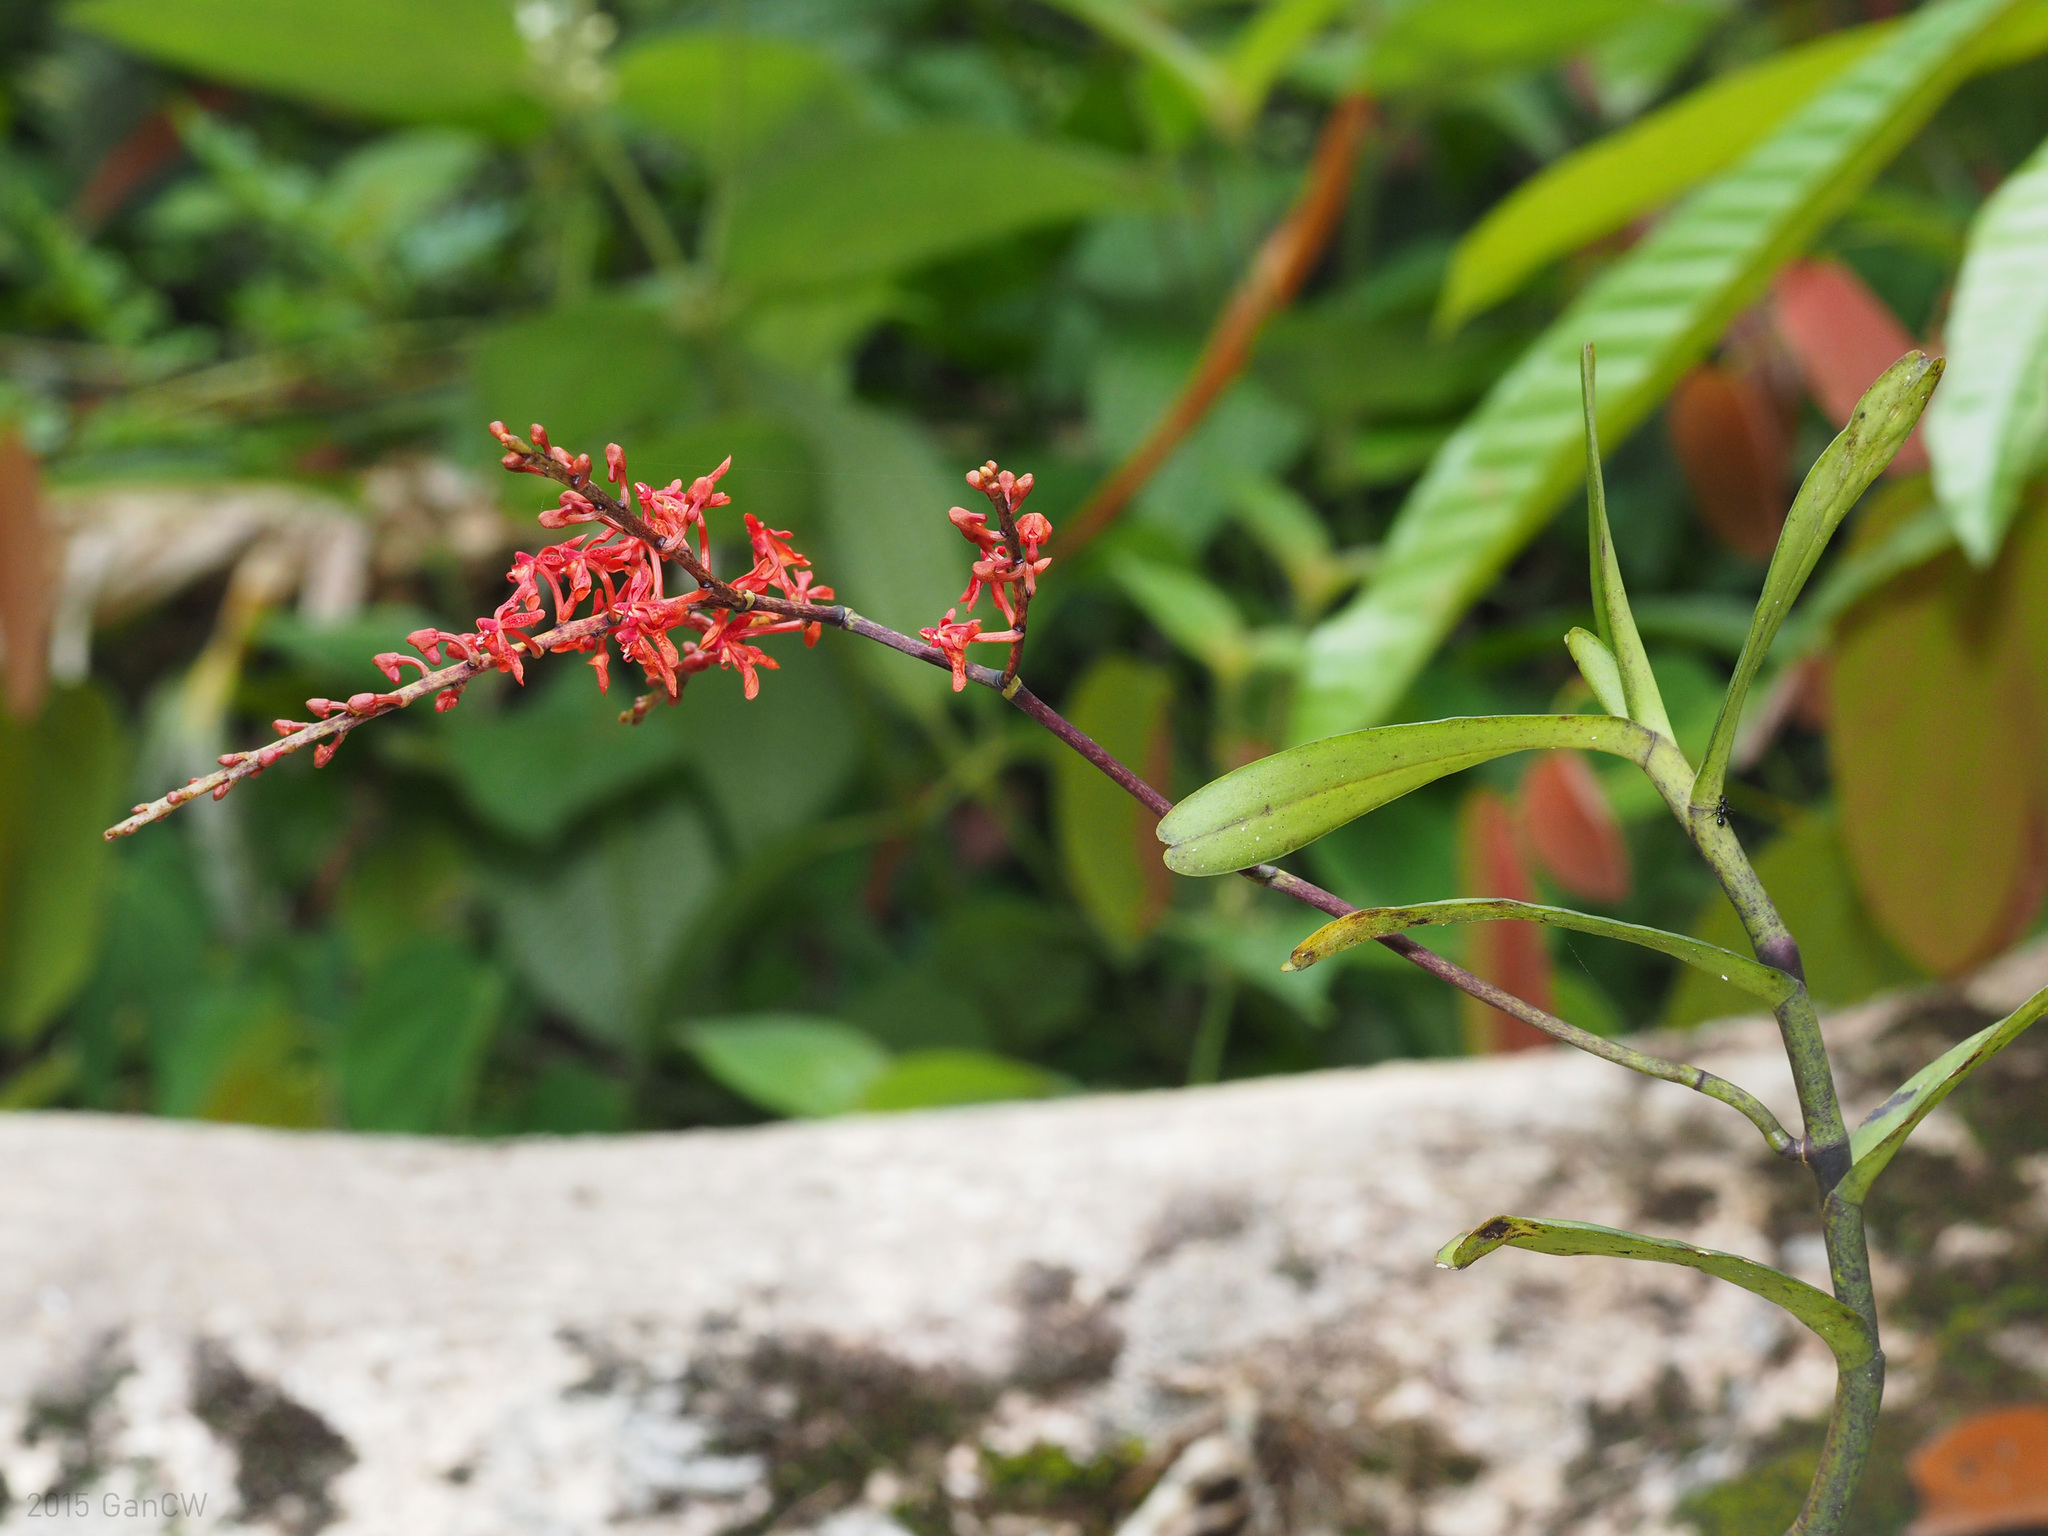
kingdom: Plantae
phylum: Tracheophyta
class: Liliopsida
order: Asparagales
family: Orchidaceae
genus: Renanthera
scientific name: Renanthera elongata
